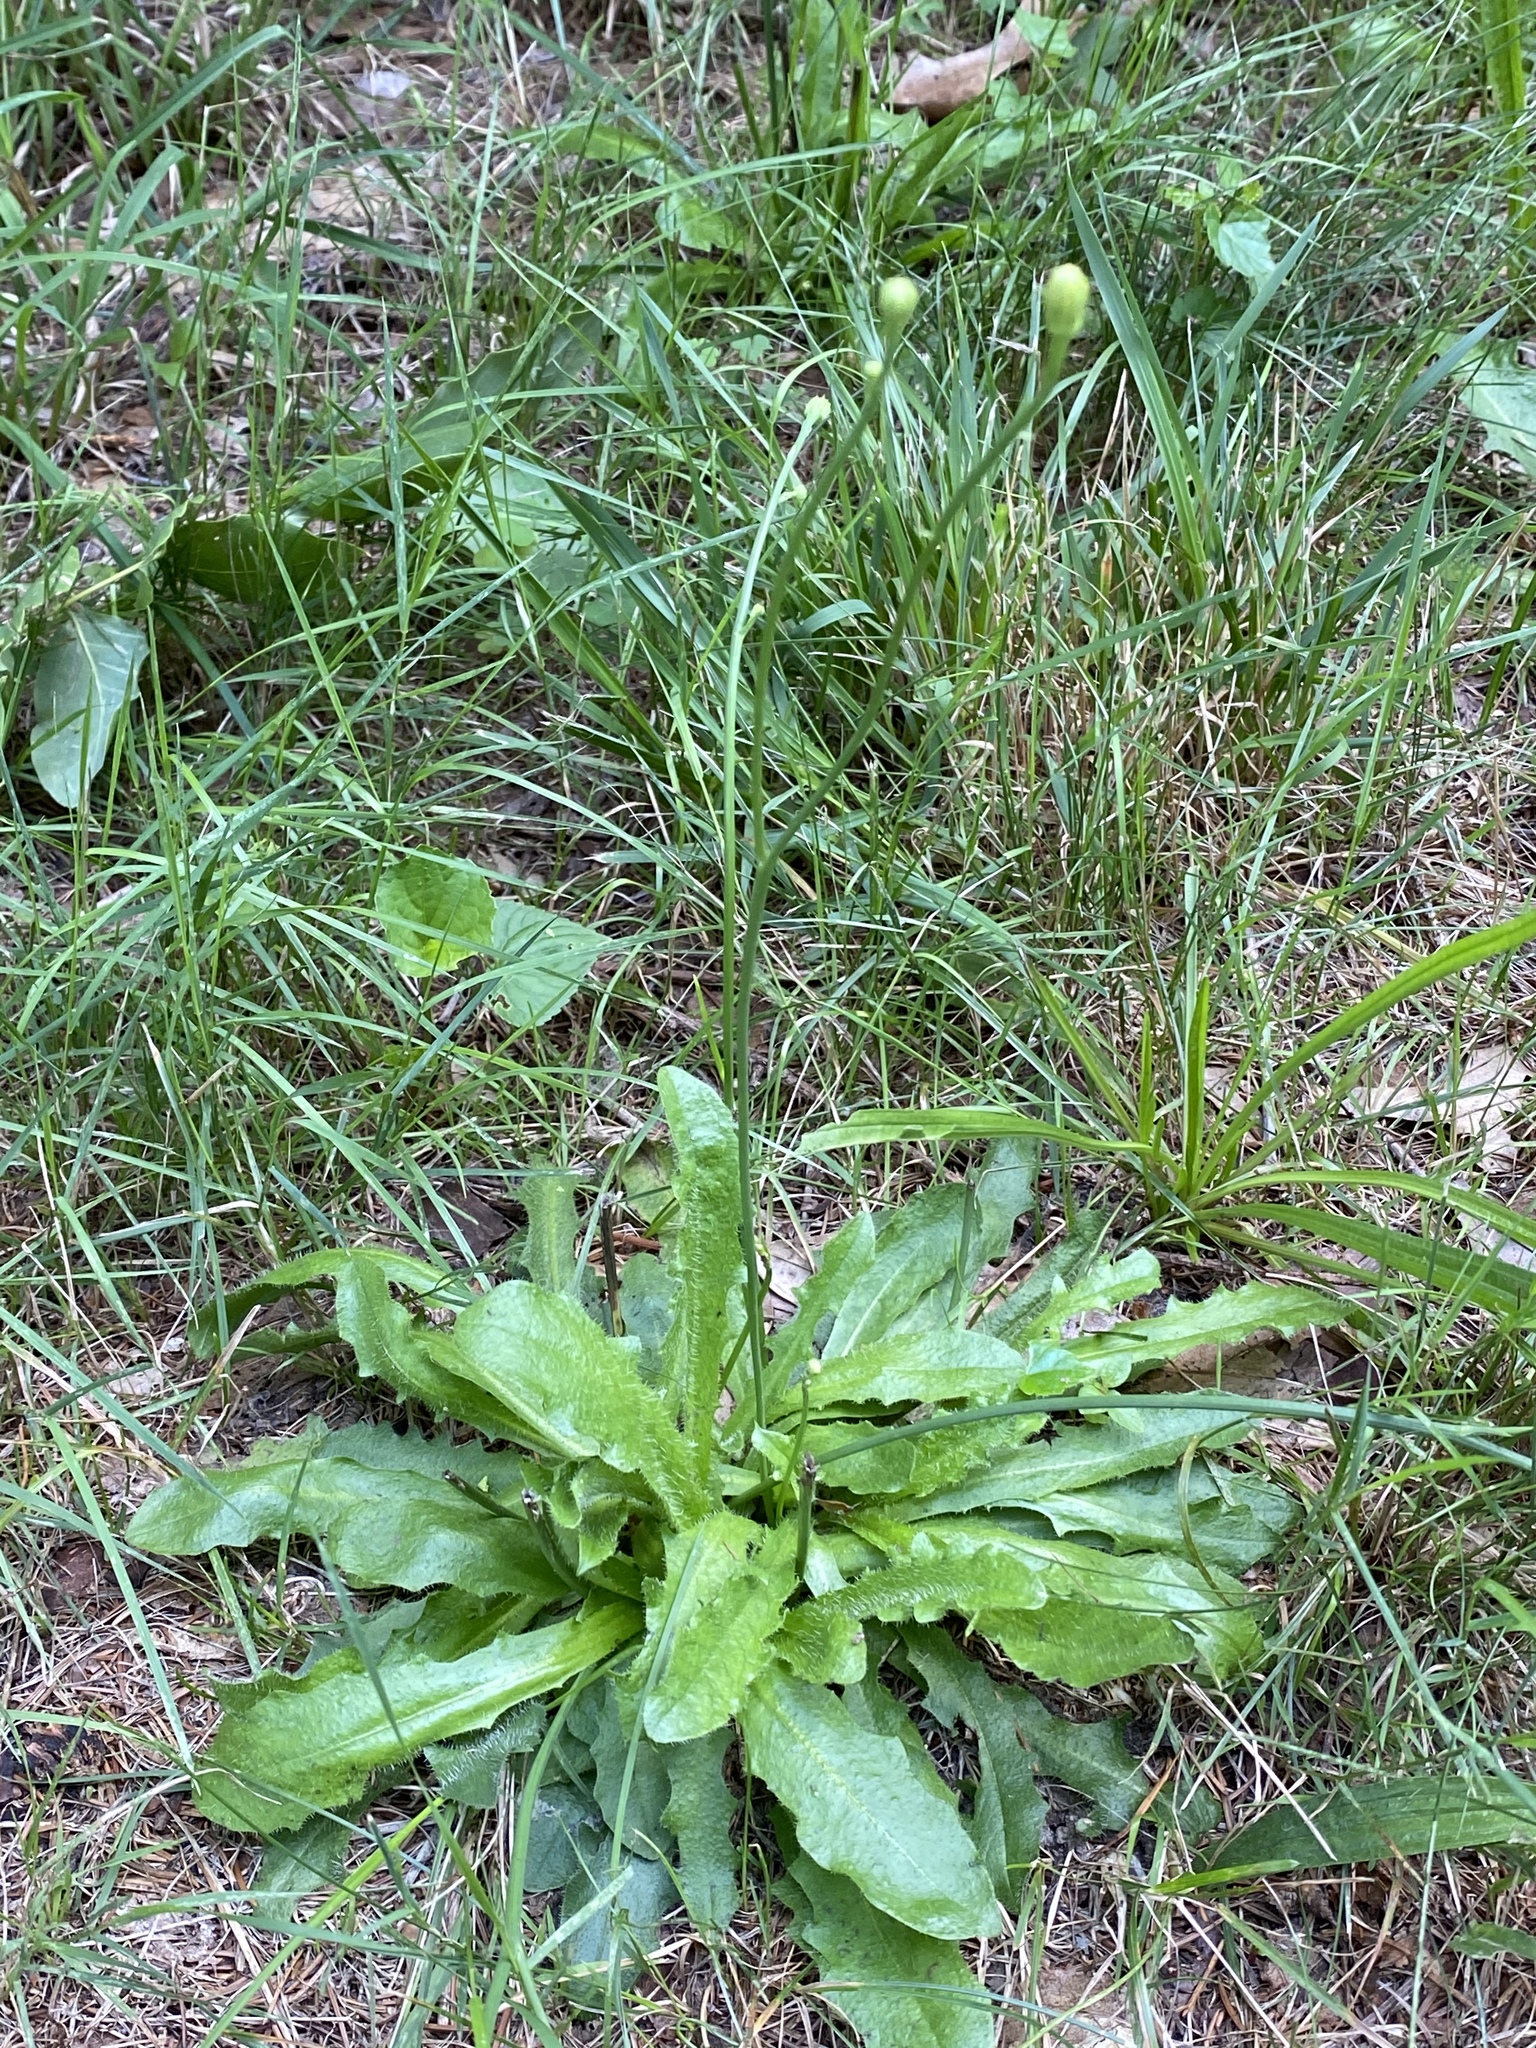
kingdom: Plantae
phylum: Tracheophyta
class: Magnoliopsida
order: Asterales
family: Asteraceae
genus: Hypochaeris
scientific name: Hypochaeris radicata
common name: Flatweed
